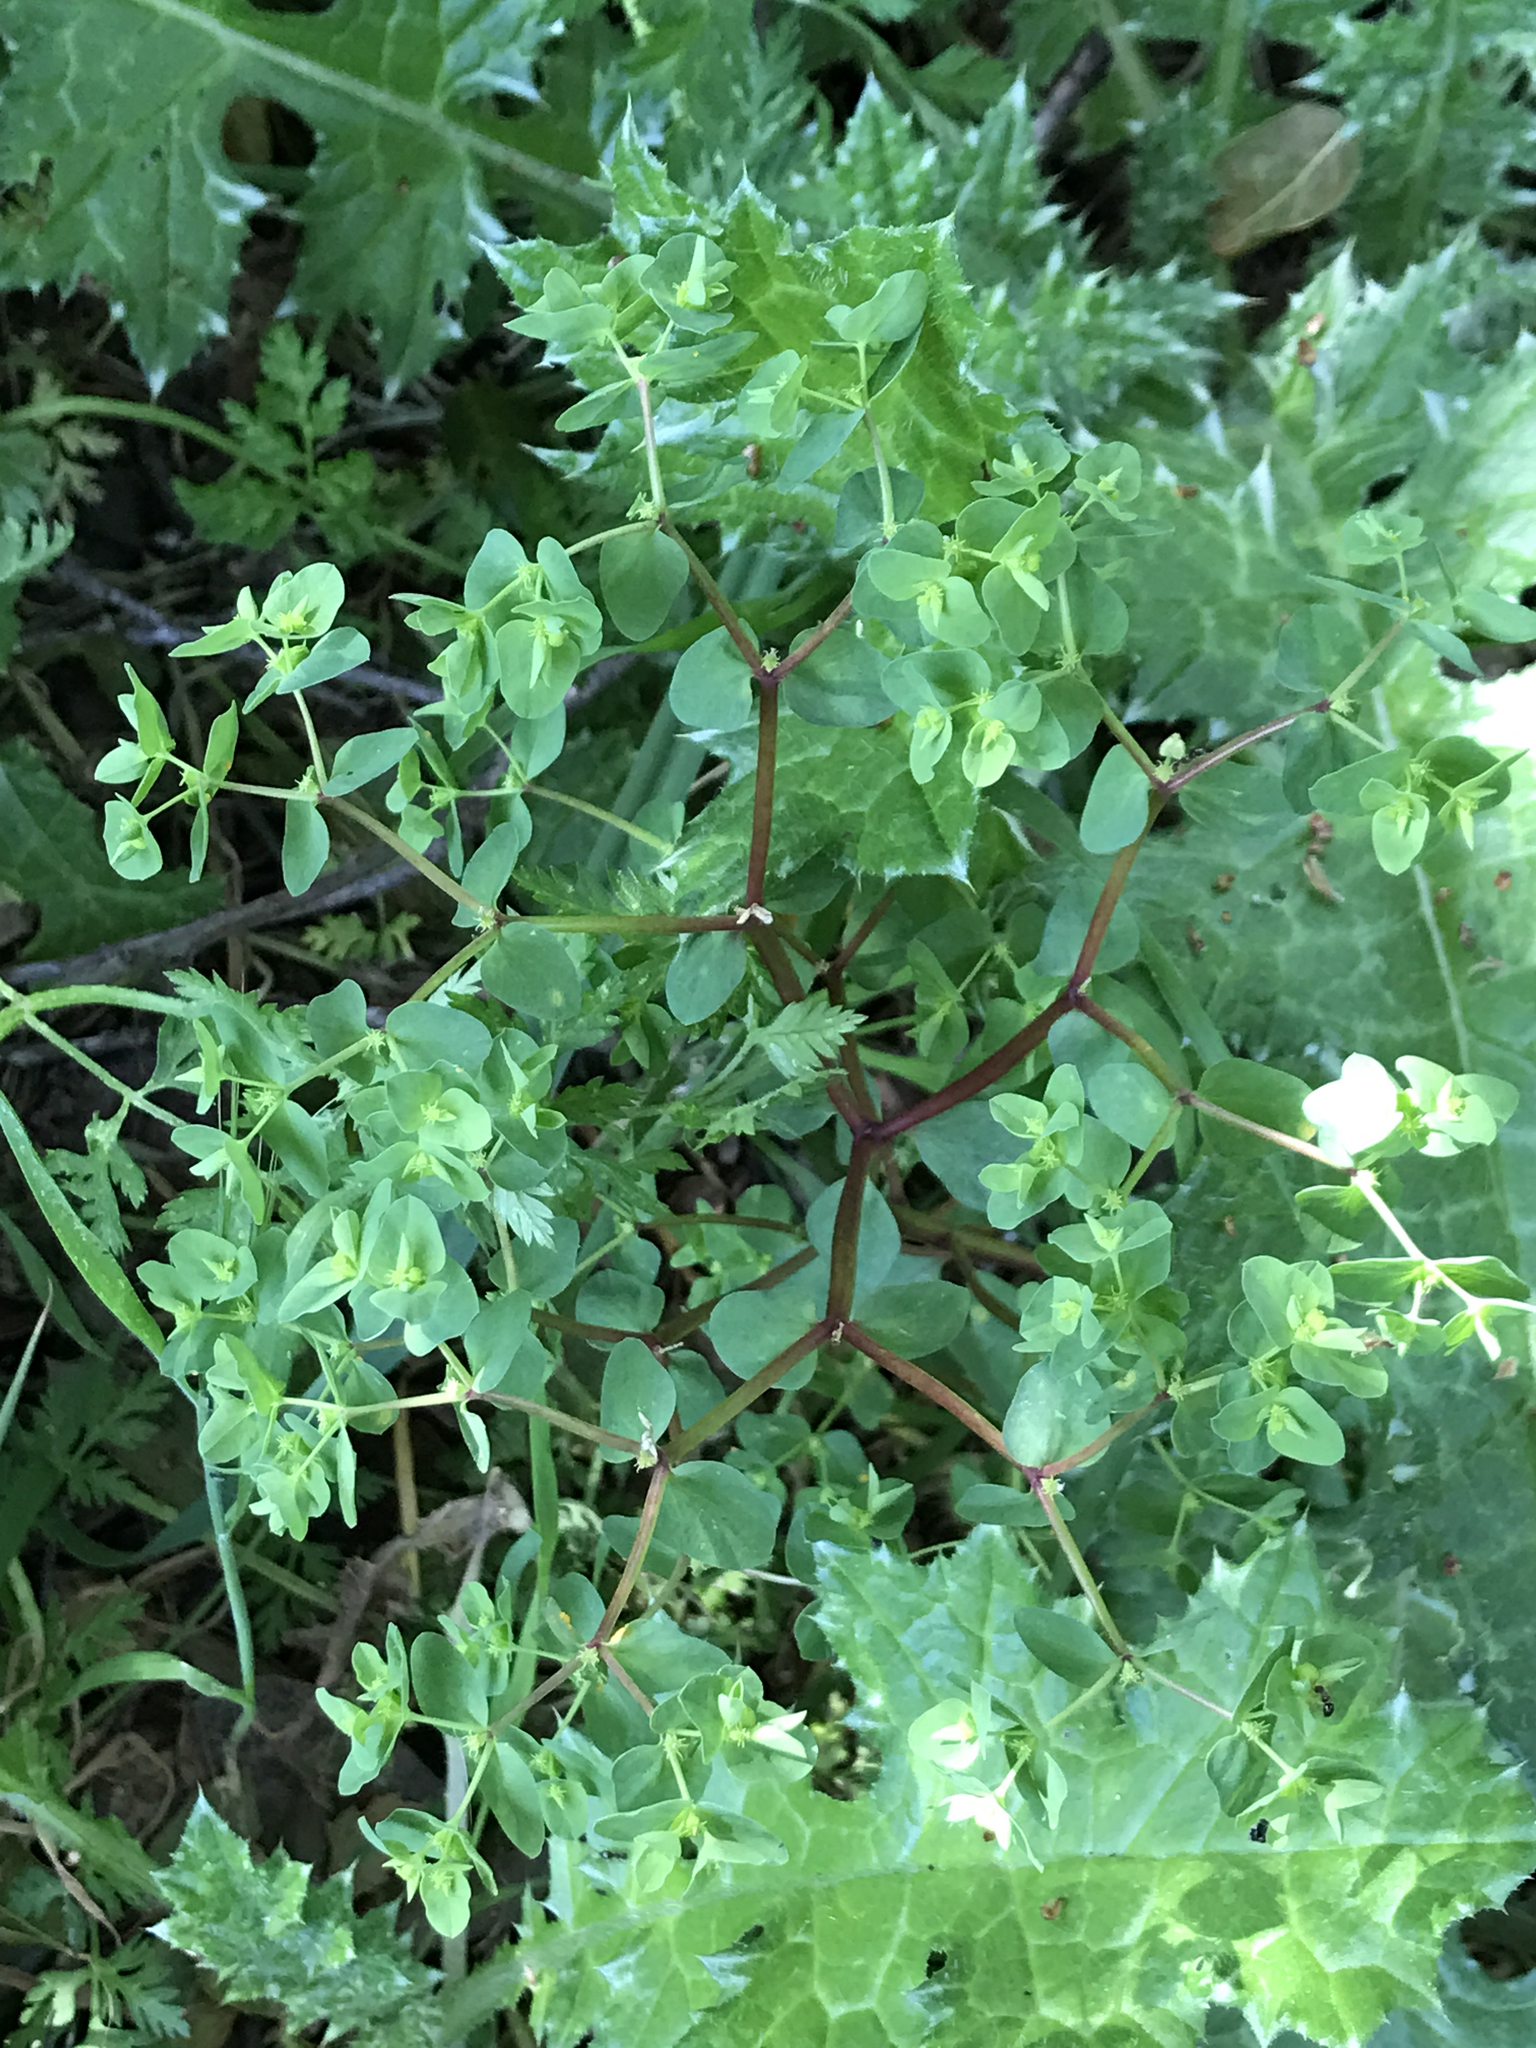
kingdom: Plantae
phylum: Tracheophyta
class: Magnoliopsida
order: Malpighiales
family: Euphorbiaceae
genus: Euphorbia
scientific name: Euphorbia peplus
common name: Petty spurge
